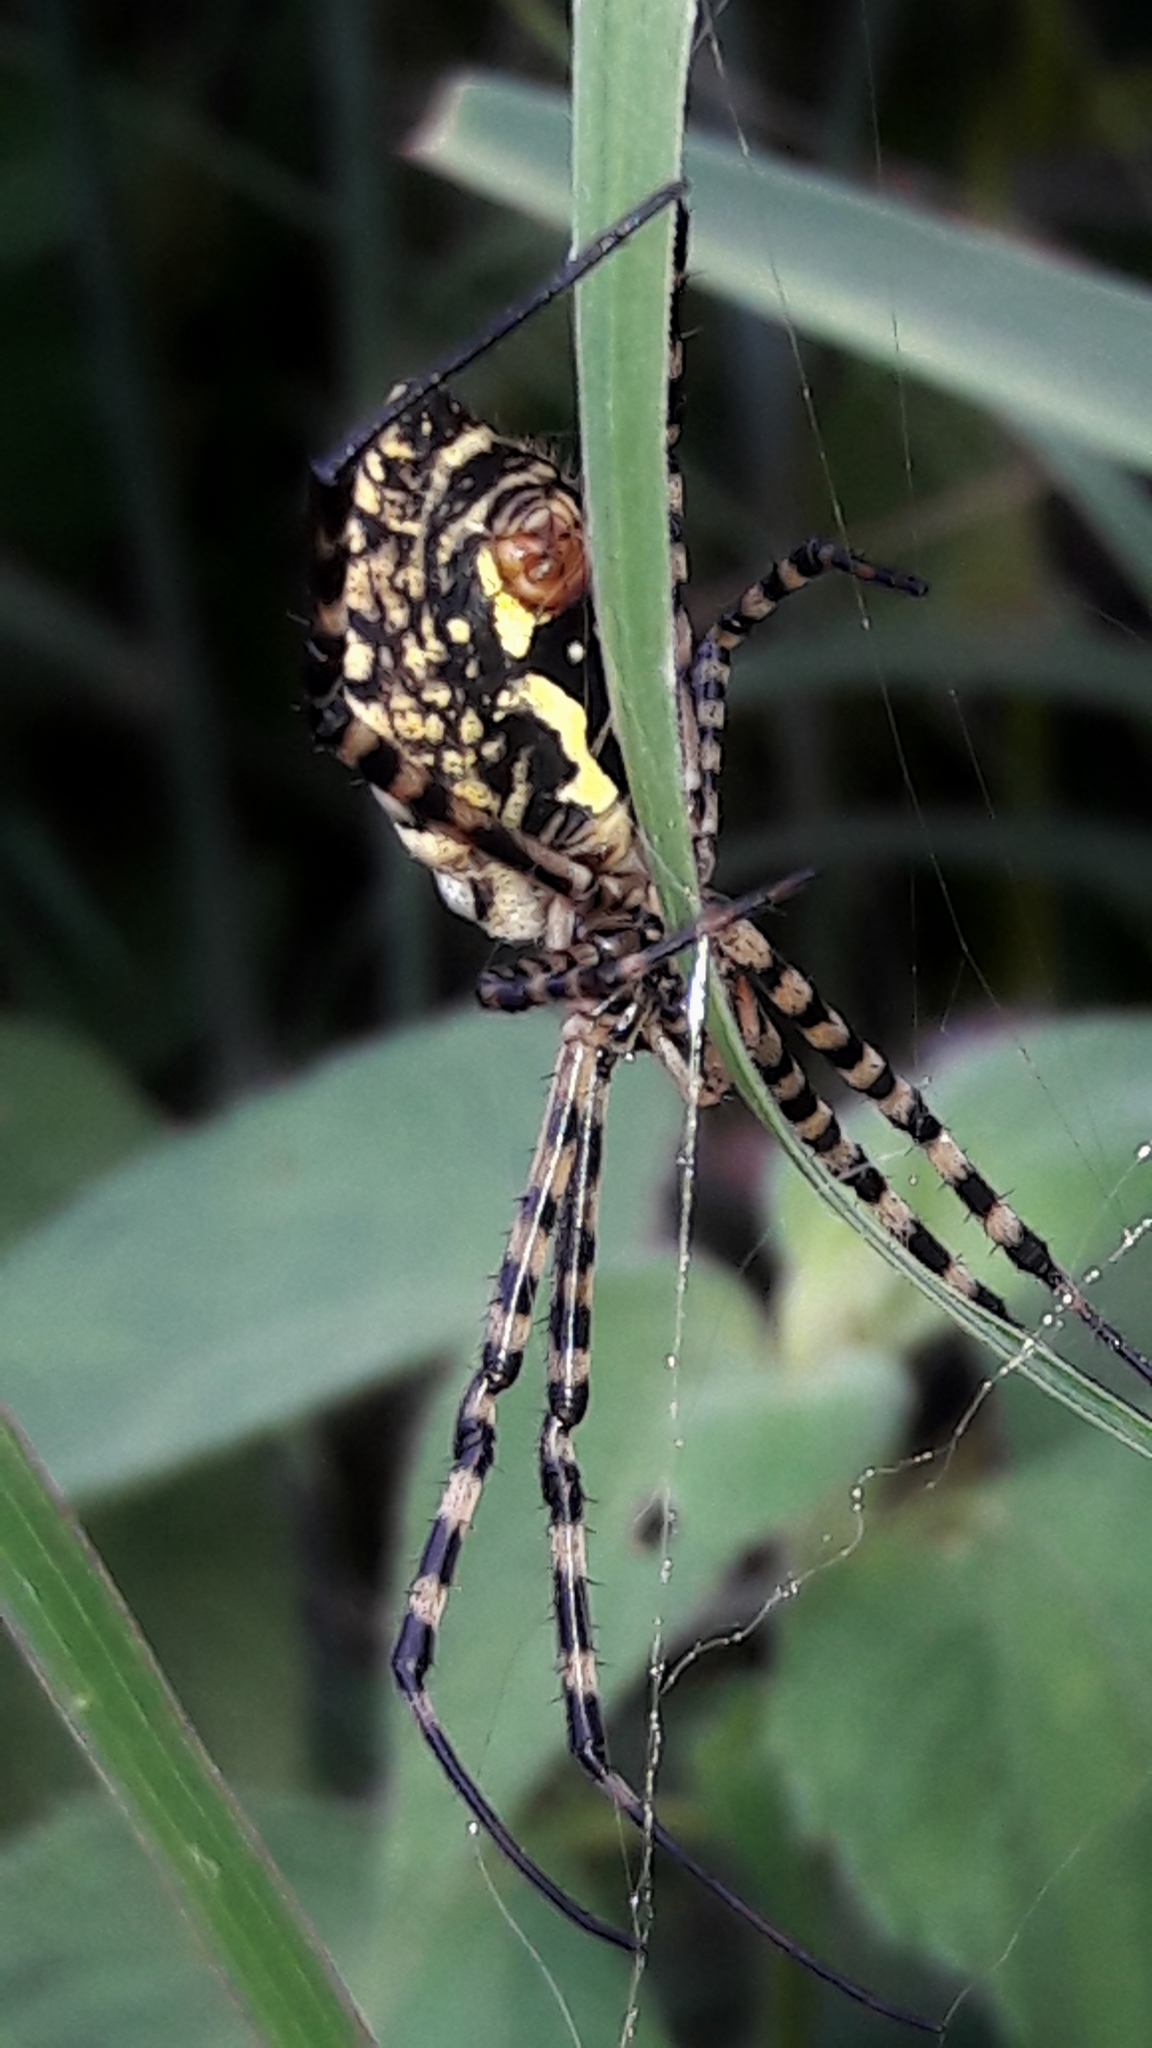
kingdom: Animalia
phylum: Arthropoda
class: Arachnida
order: Araneae
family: Araneidae
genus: Argiope
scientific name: Argiope trifasciata
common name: Banded garden spider
